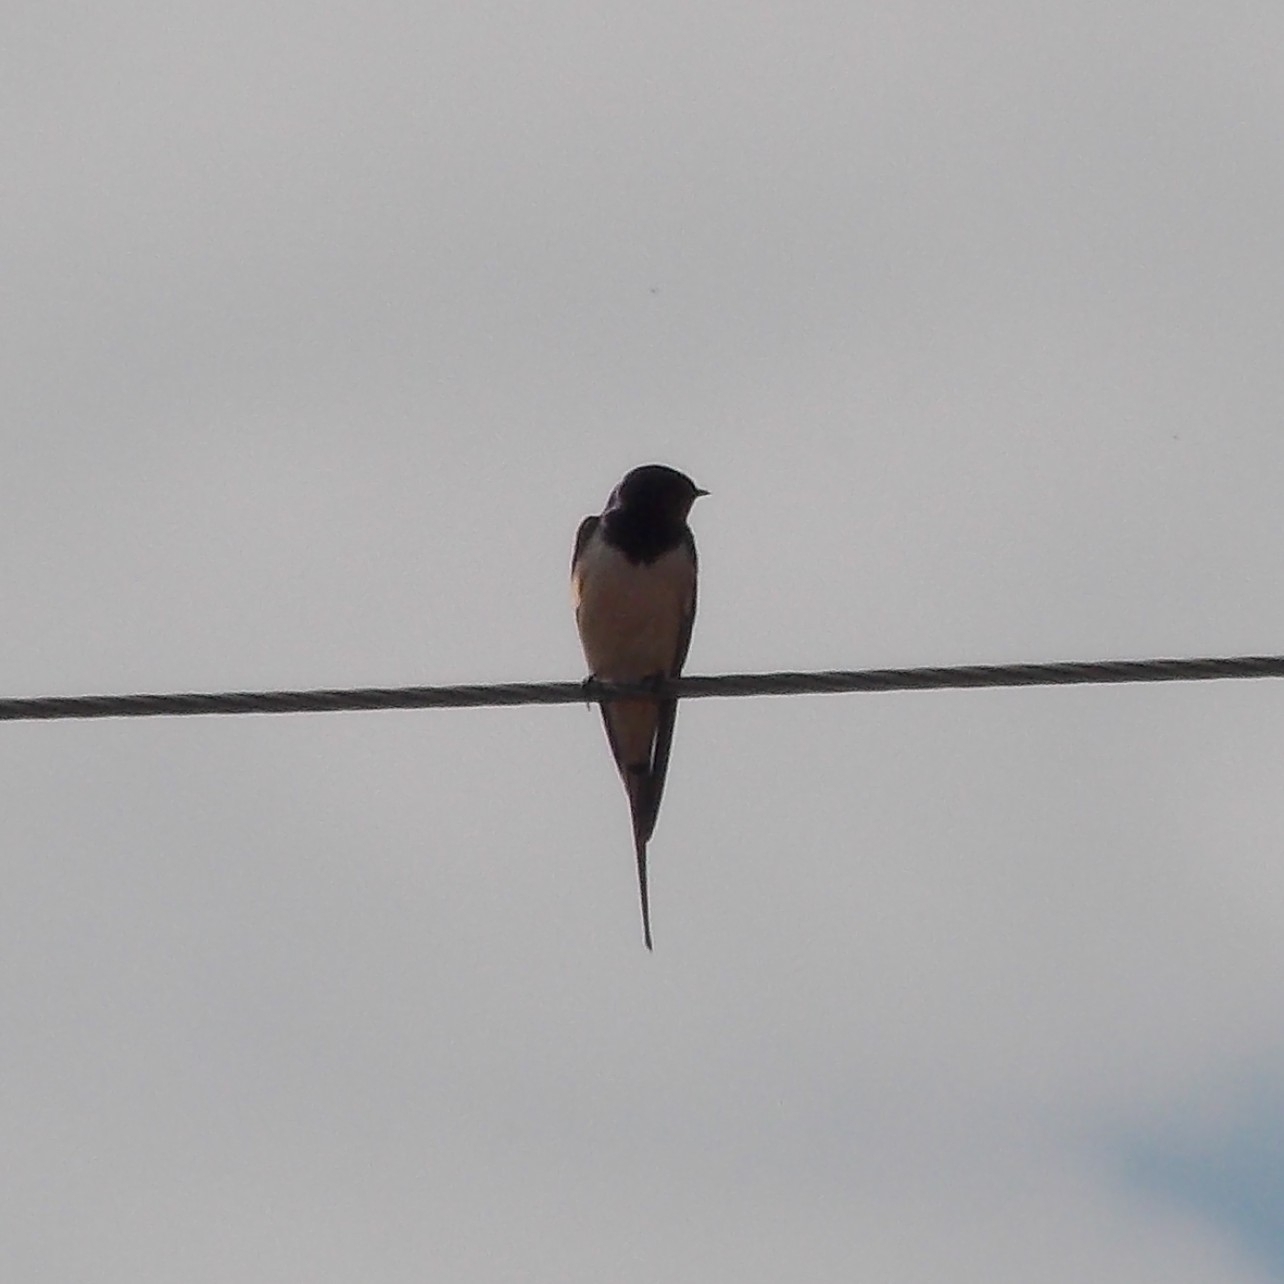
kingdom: Animalia
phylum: Chordata
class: Aves
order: Passeriformes
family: Hirundinidae
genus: Hirundo
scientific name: Hirundo rustica
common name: Barn swallow
